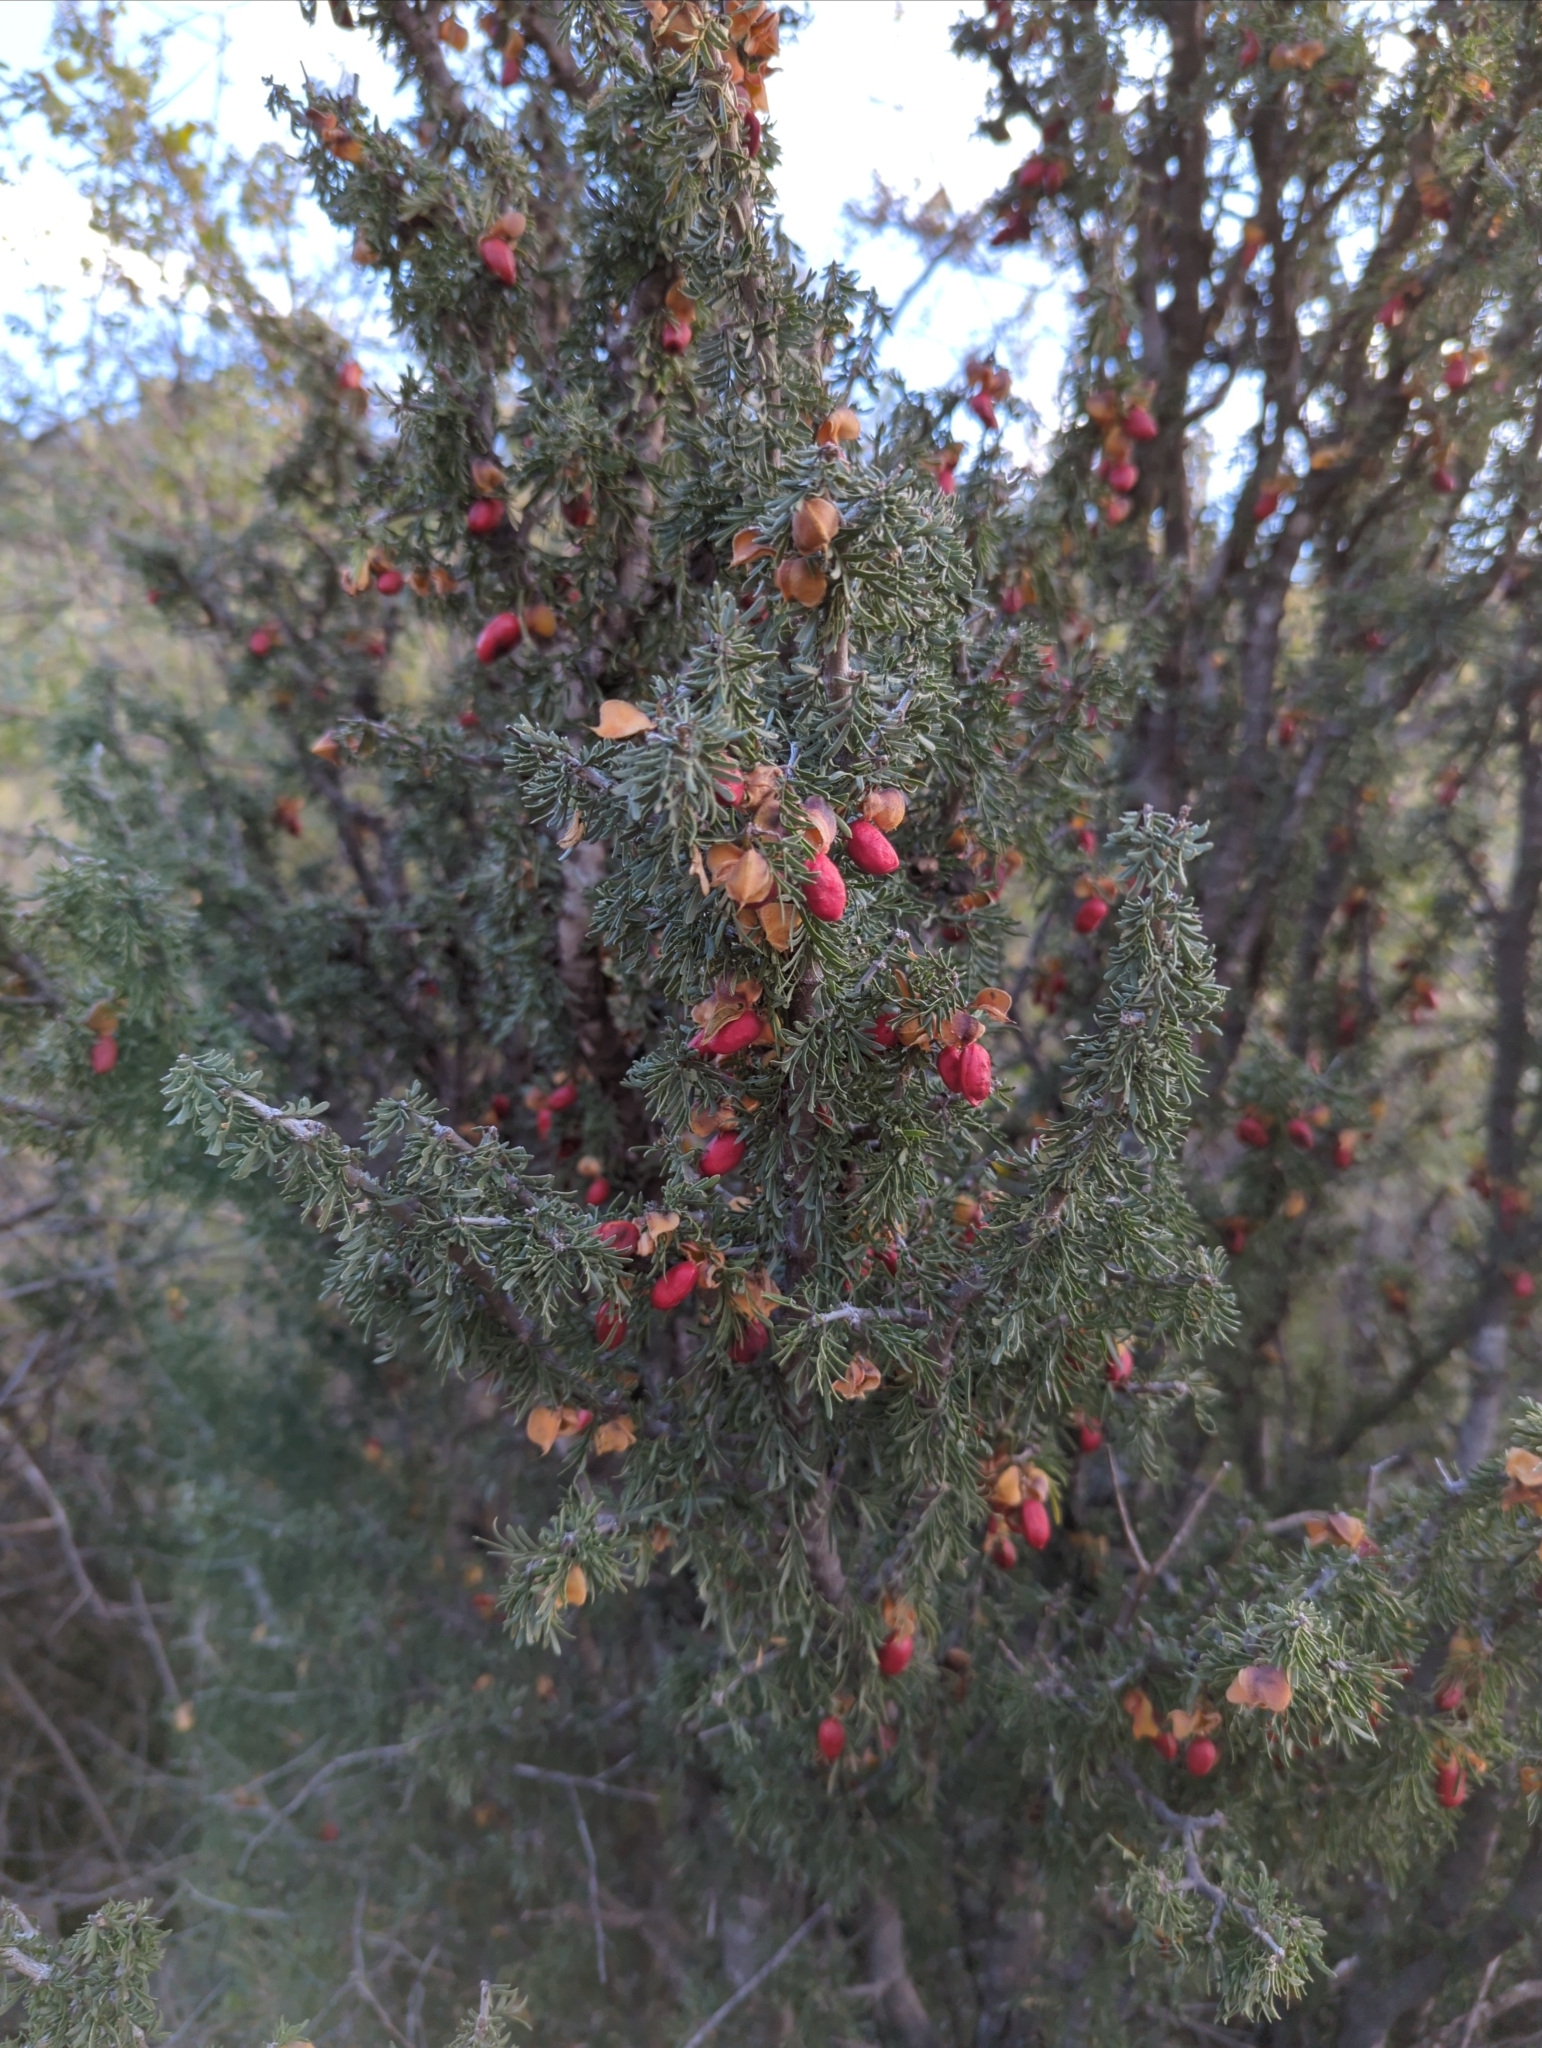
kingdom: Plantae
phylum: Tracheophyta
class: Magnoliopsida
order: Zygophyllales
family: Zygophyllaceae
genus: Porlieria
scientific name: Porlieria angustifolia
